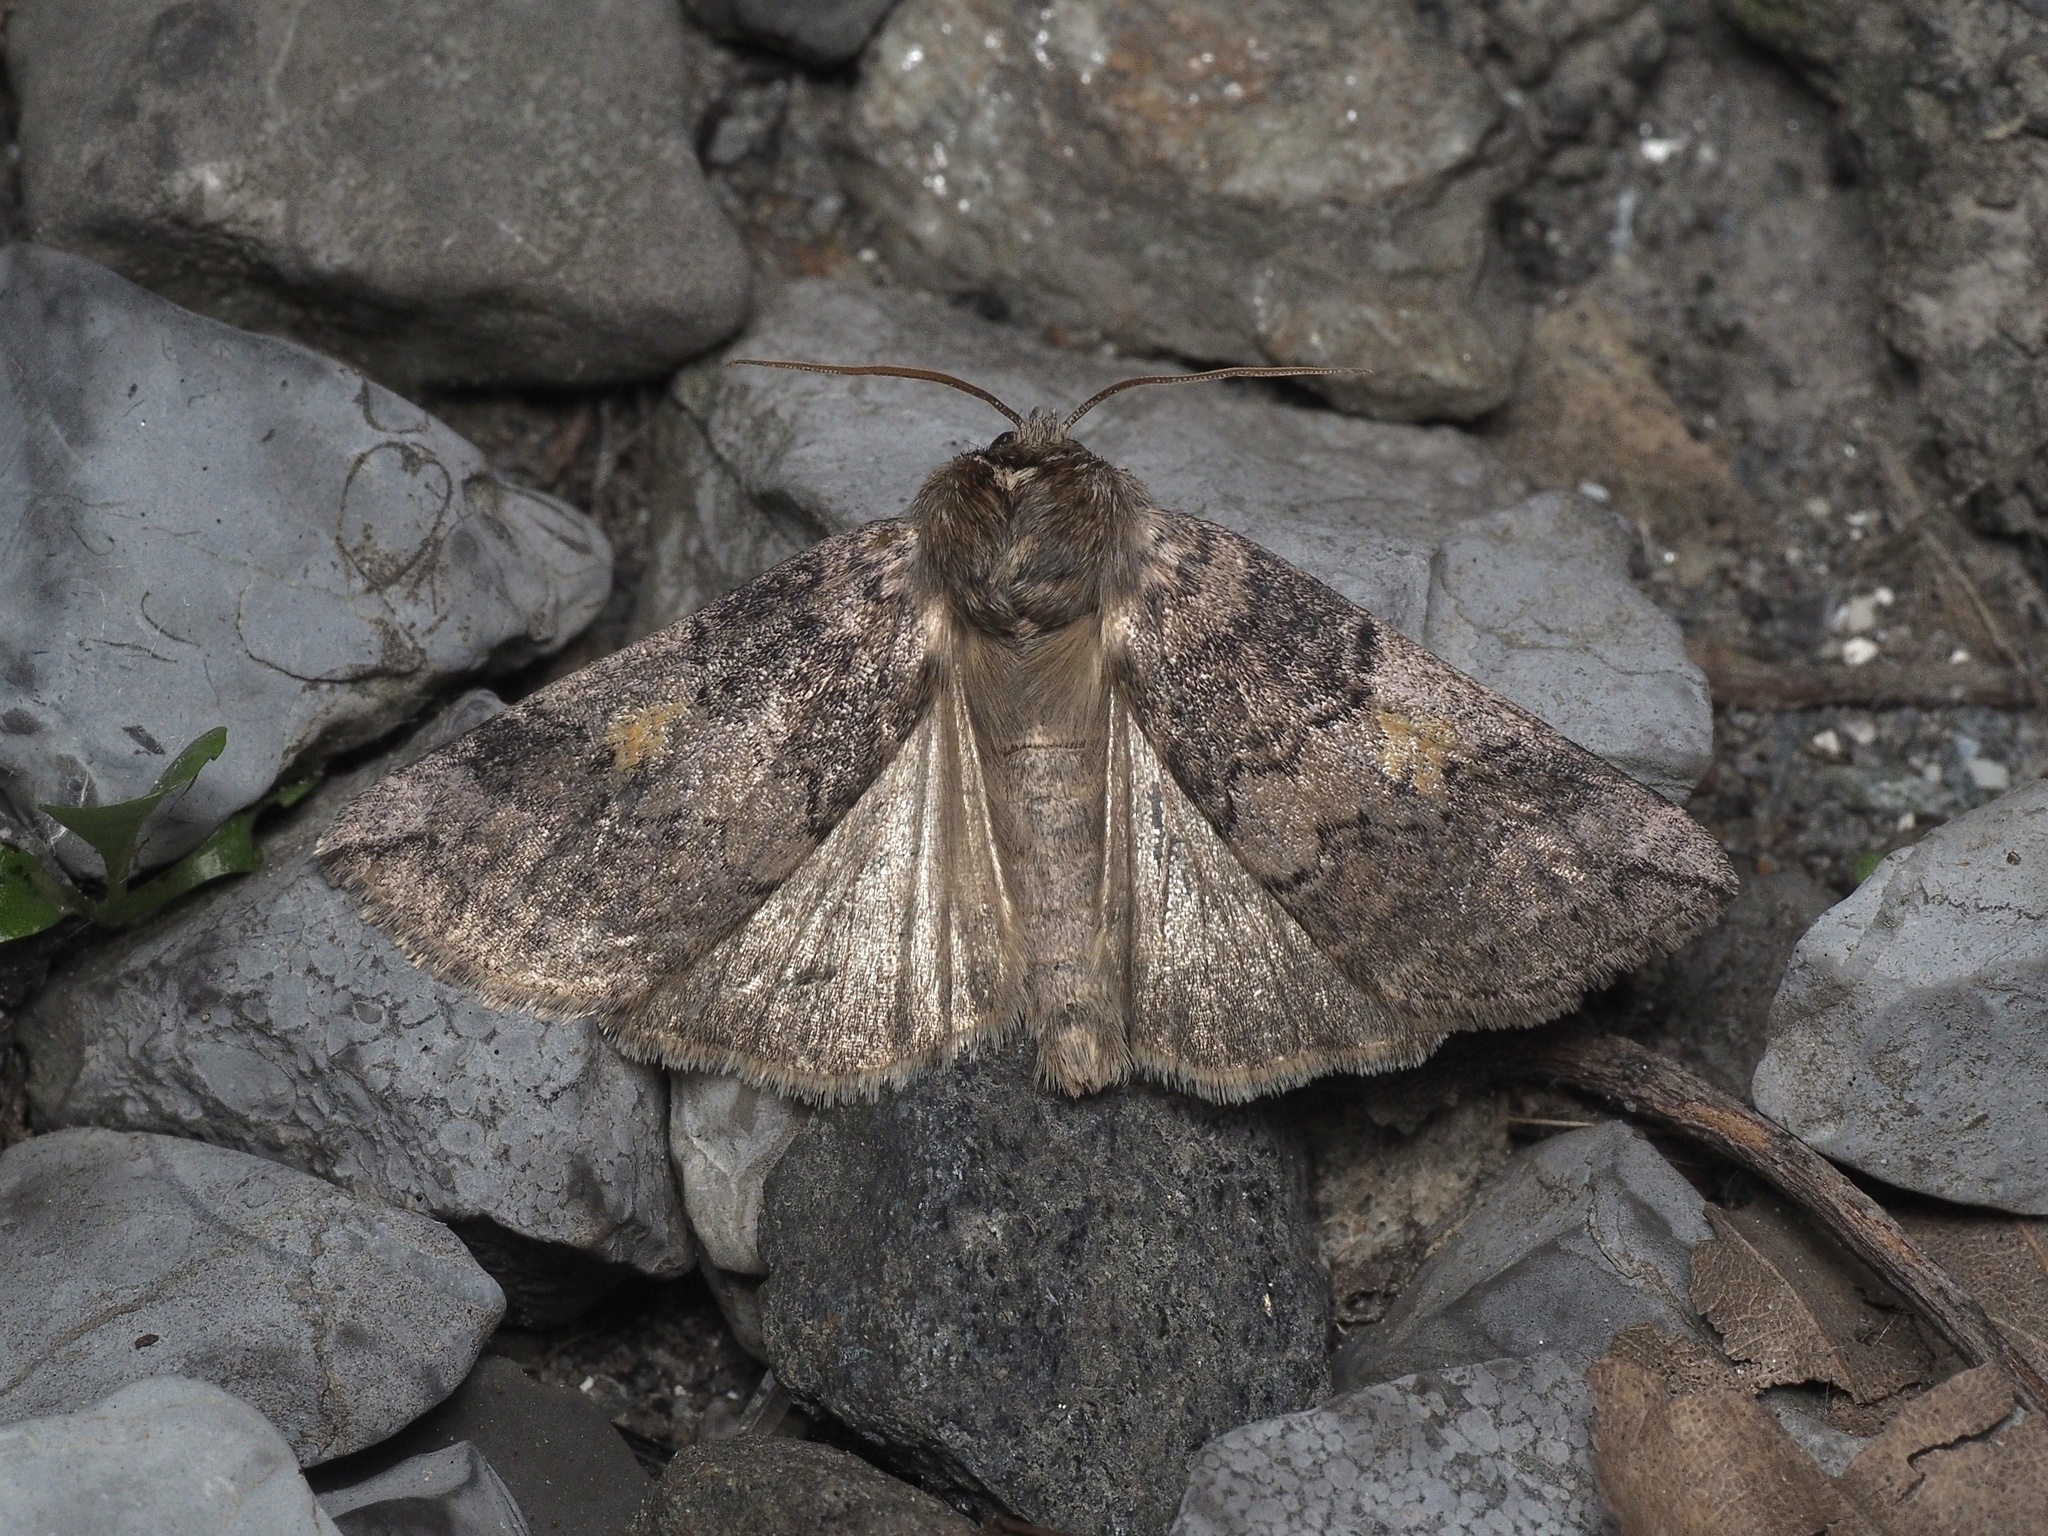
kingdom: Animalia
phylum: Arthropoda
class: Insecta
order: Lepidoptera
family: Drepanidae
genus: Tethea
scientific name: Tethea or
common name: Poplar lutestring
